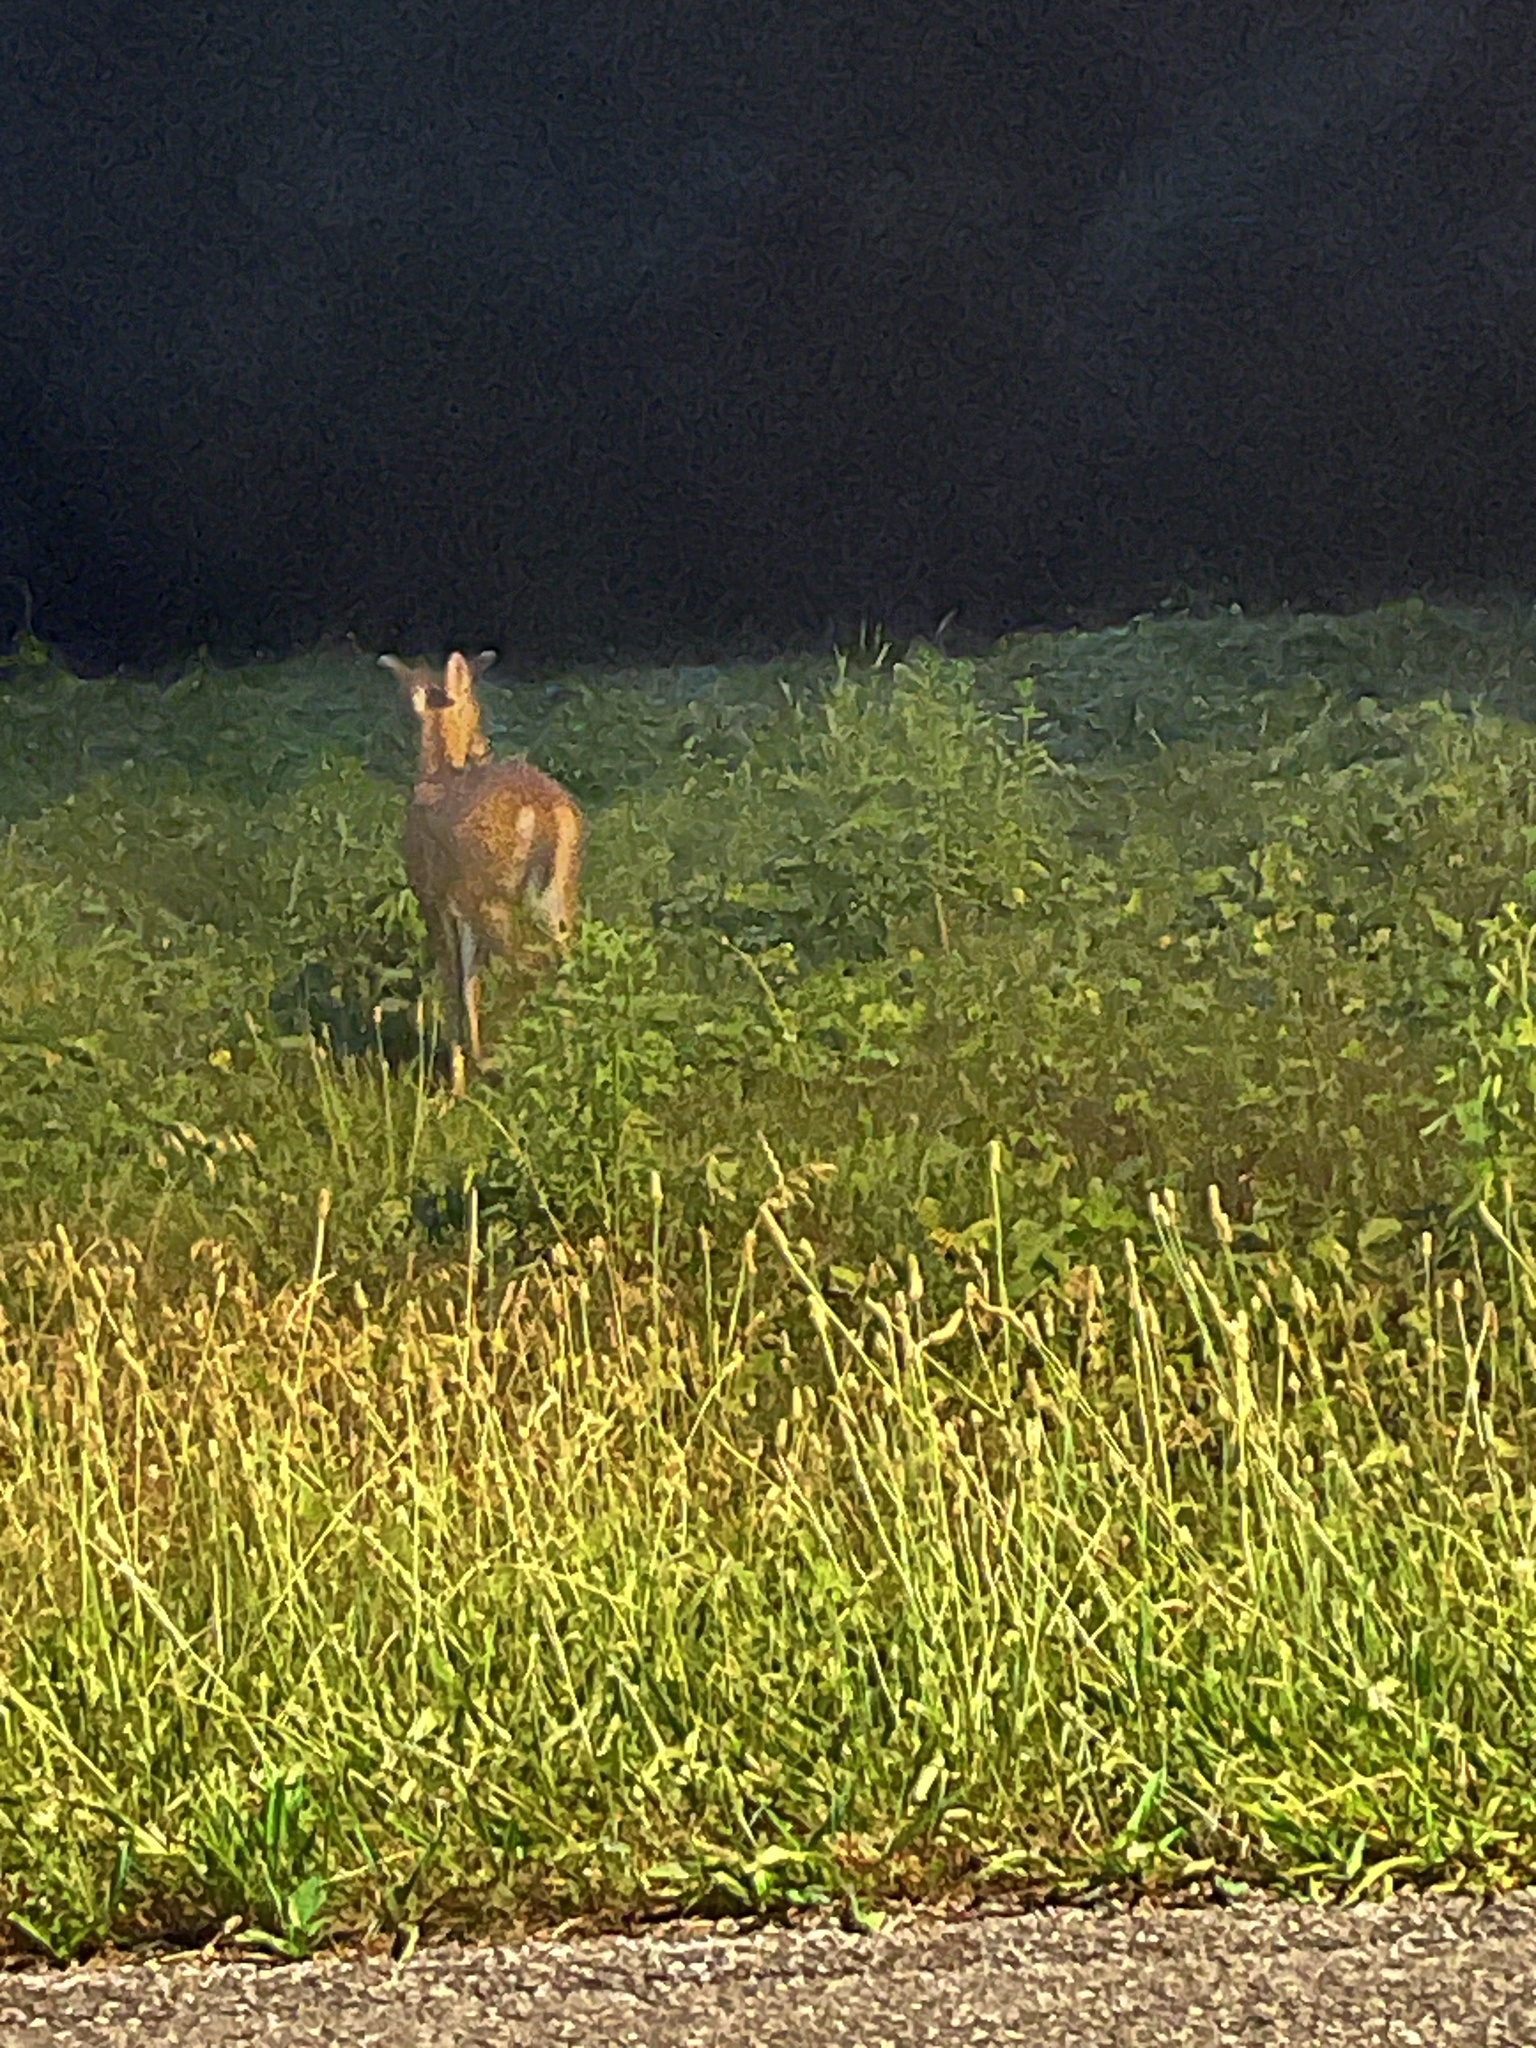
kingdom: Animalia
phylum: Chordata
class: Mammalia
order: Artiodactyla
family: Cervidae
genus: Odocoileus
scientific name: Odocoileus virginianus
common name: White-tailed deer
